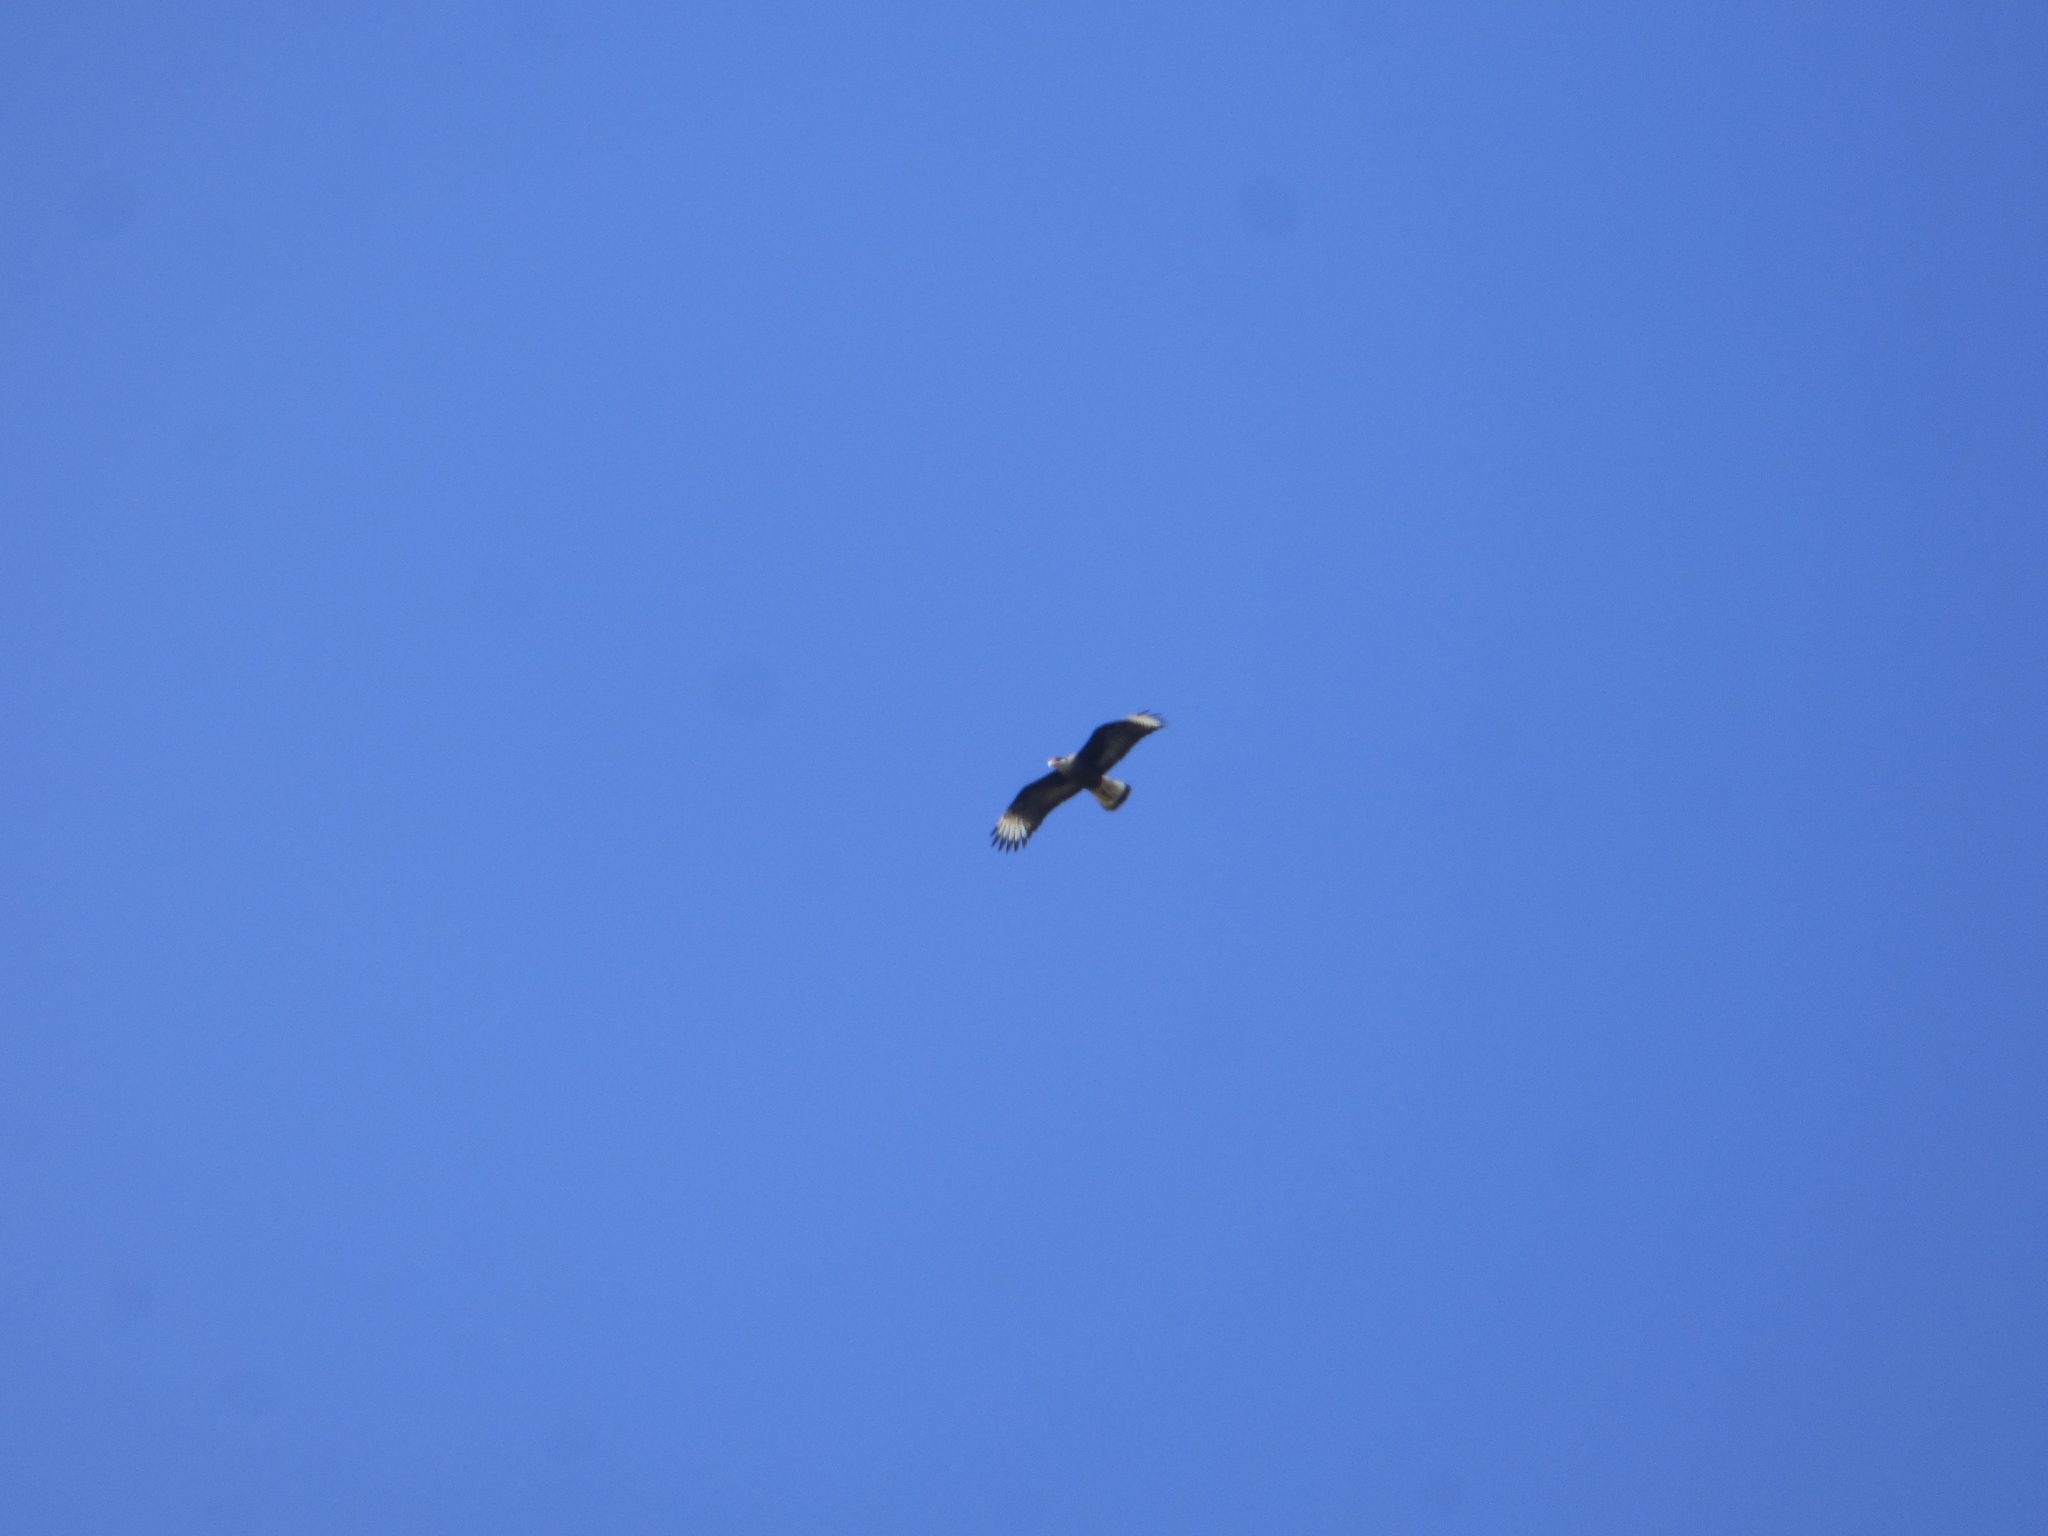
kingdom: Animalia
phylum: Chordata
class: Aves
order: Falconiformes
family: Falconidae
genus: Caracara
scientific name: Caracara plancus
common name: Southern caracara
